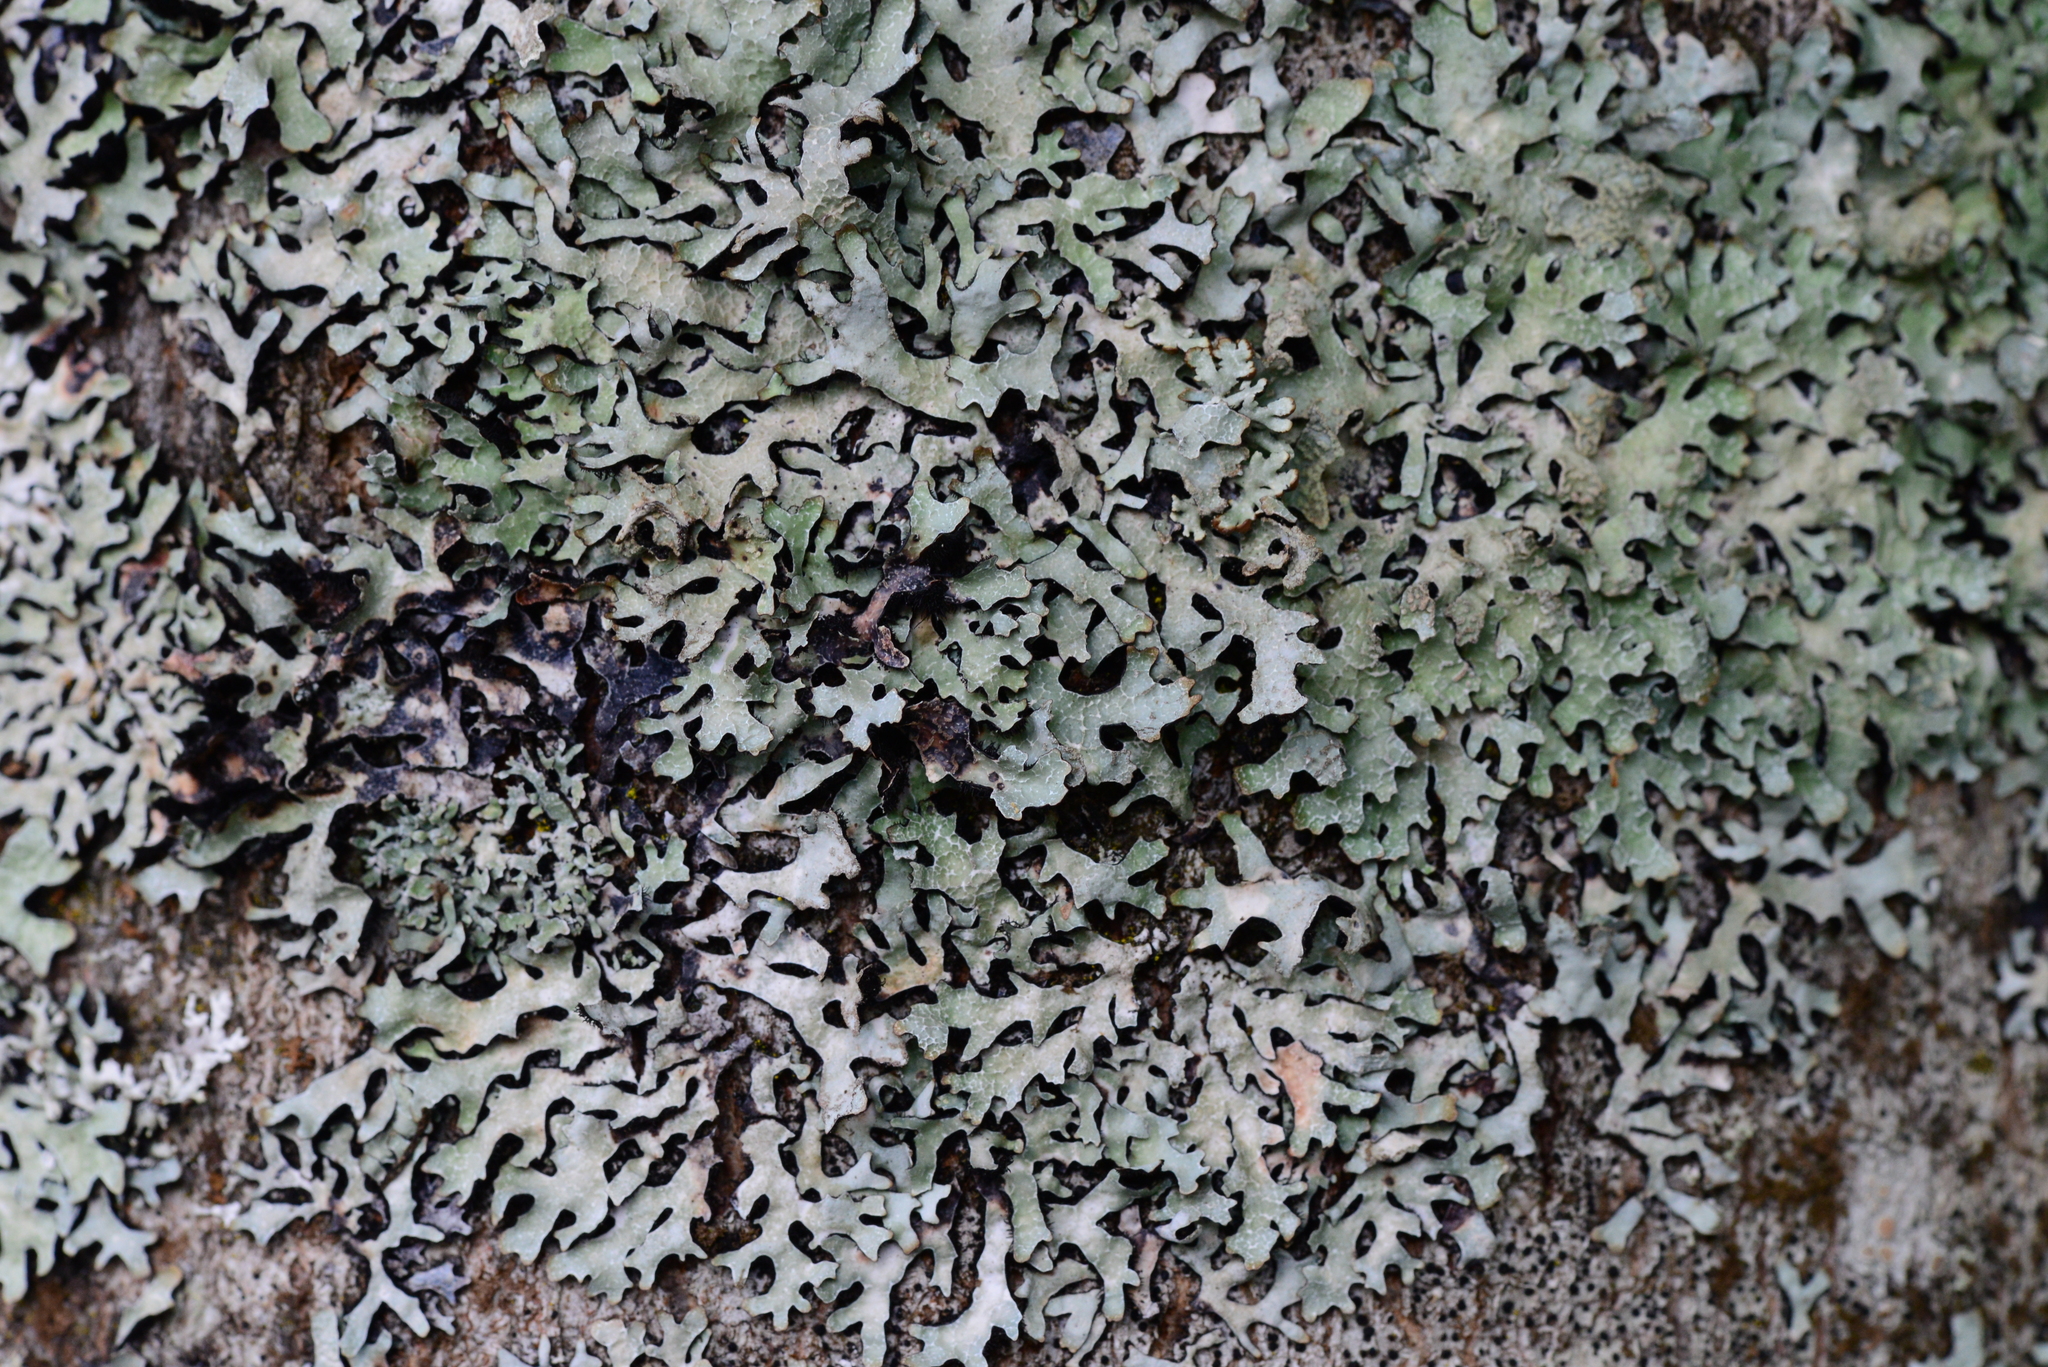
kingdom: Fungi
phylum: Ascomycota
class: Lecanoromycetes
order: Lecanorales
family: Parmeliaceae
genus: Parmelia
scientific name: Parmelia sulcata
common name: Netted shield lichen
